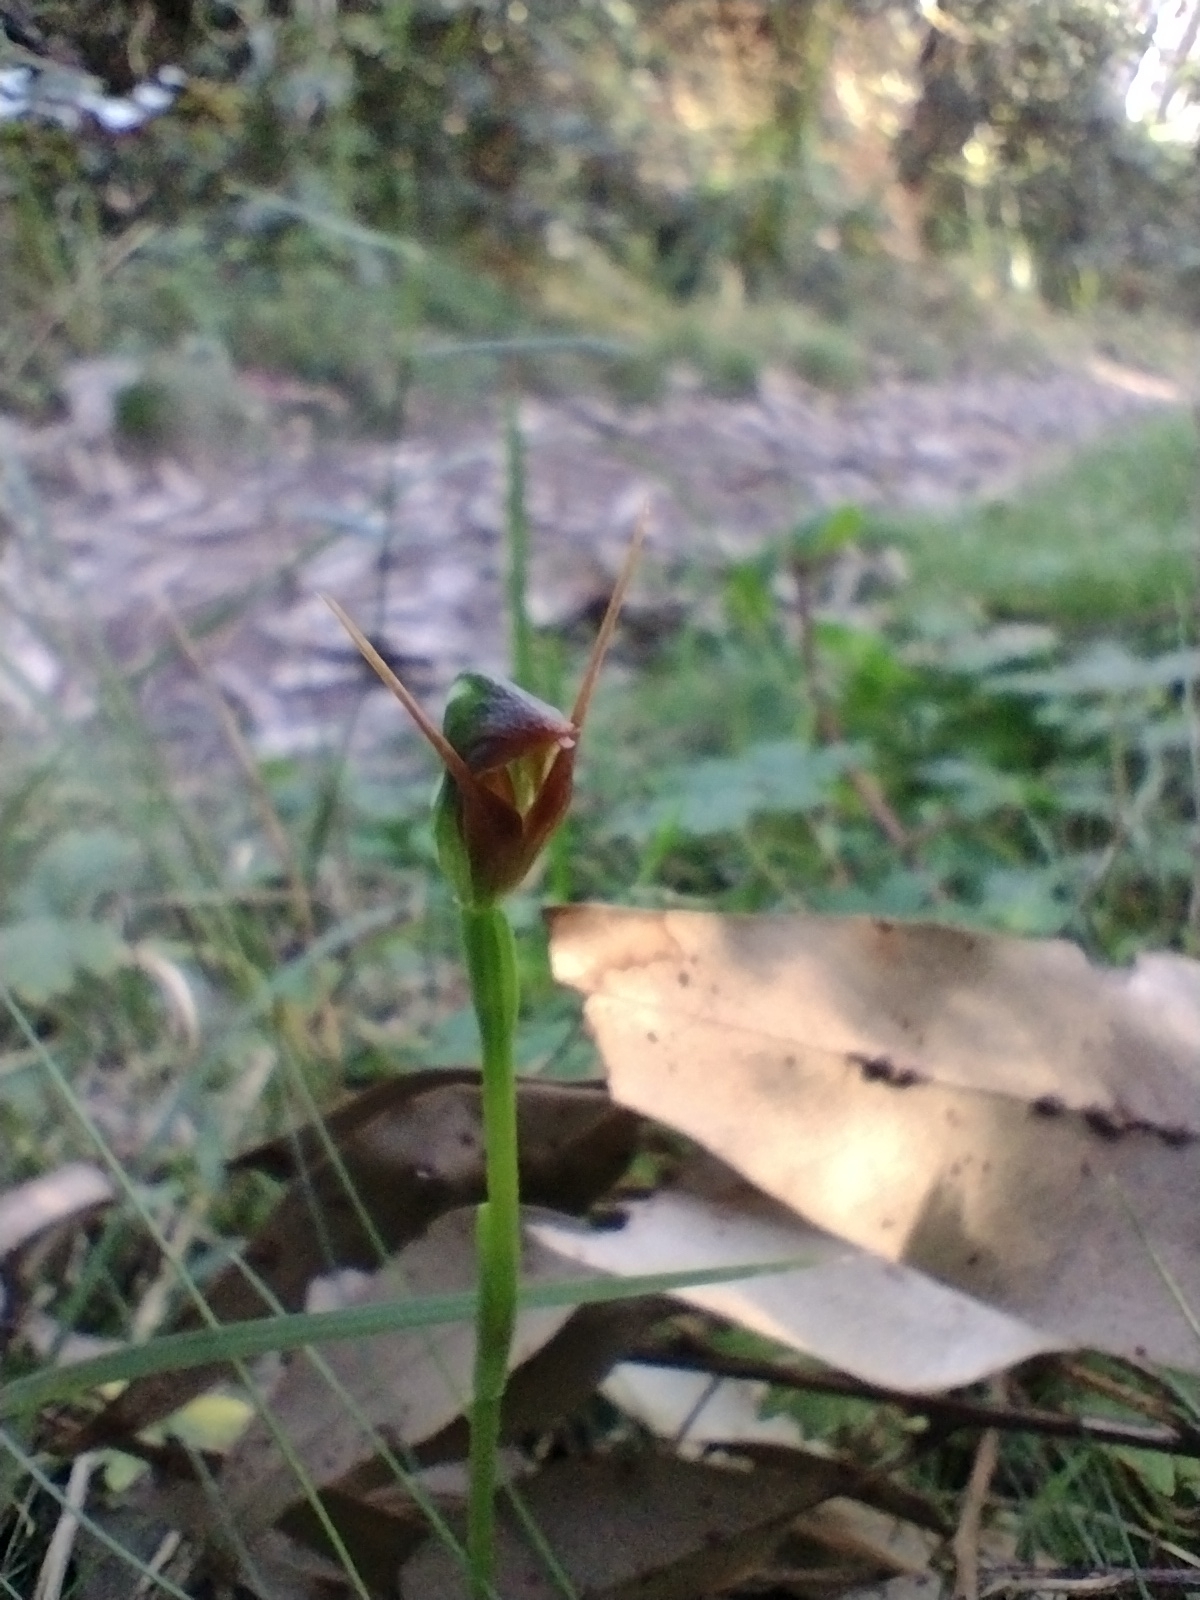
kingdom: Plantae
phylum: Tracheophyta
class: Liliopsida
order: Asparagales
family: Orchidaceae
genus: Pterostylis
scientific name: Pterostylis oblonga
